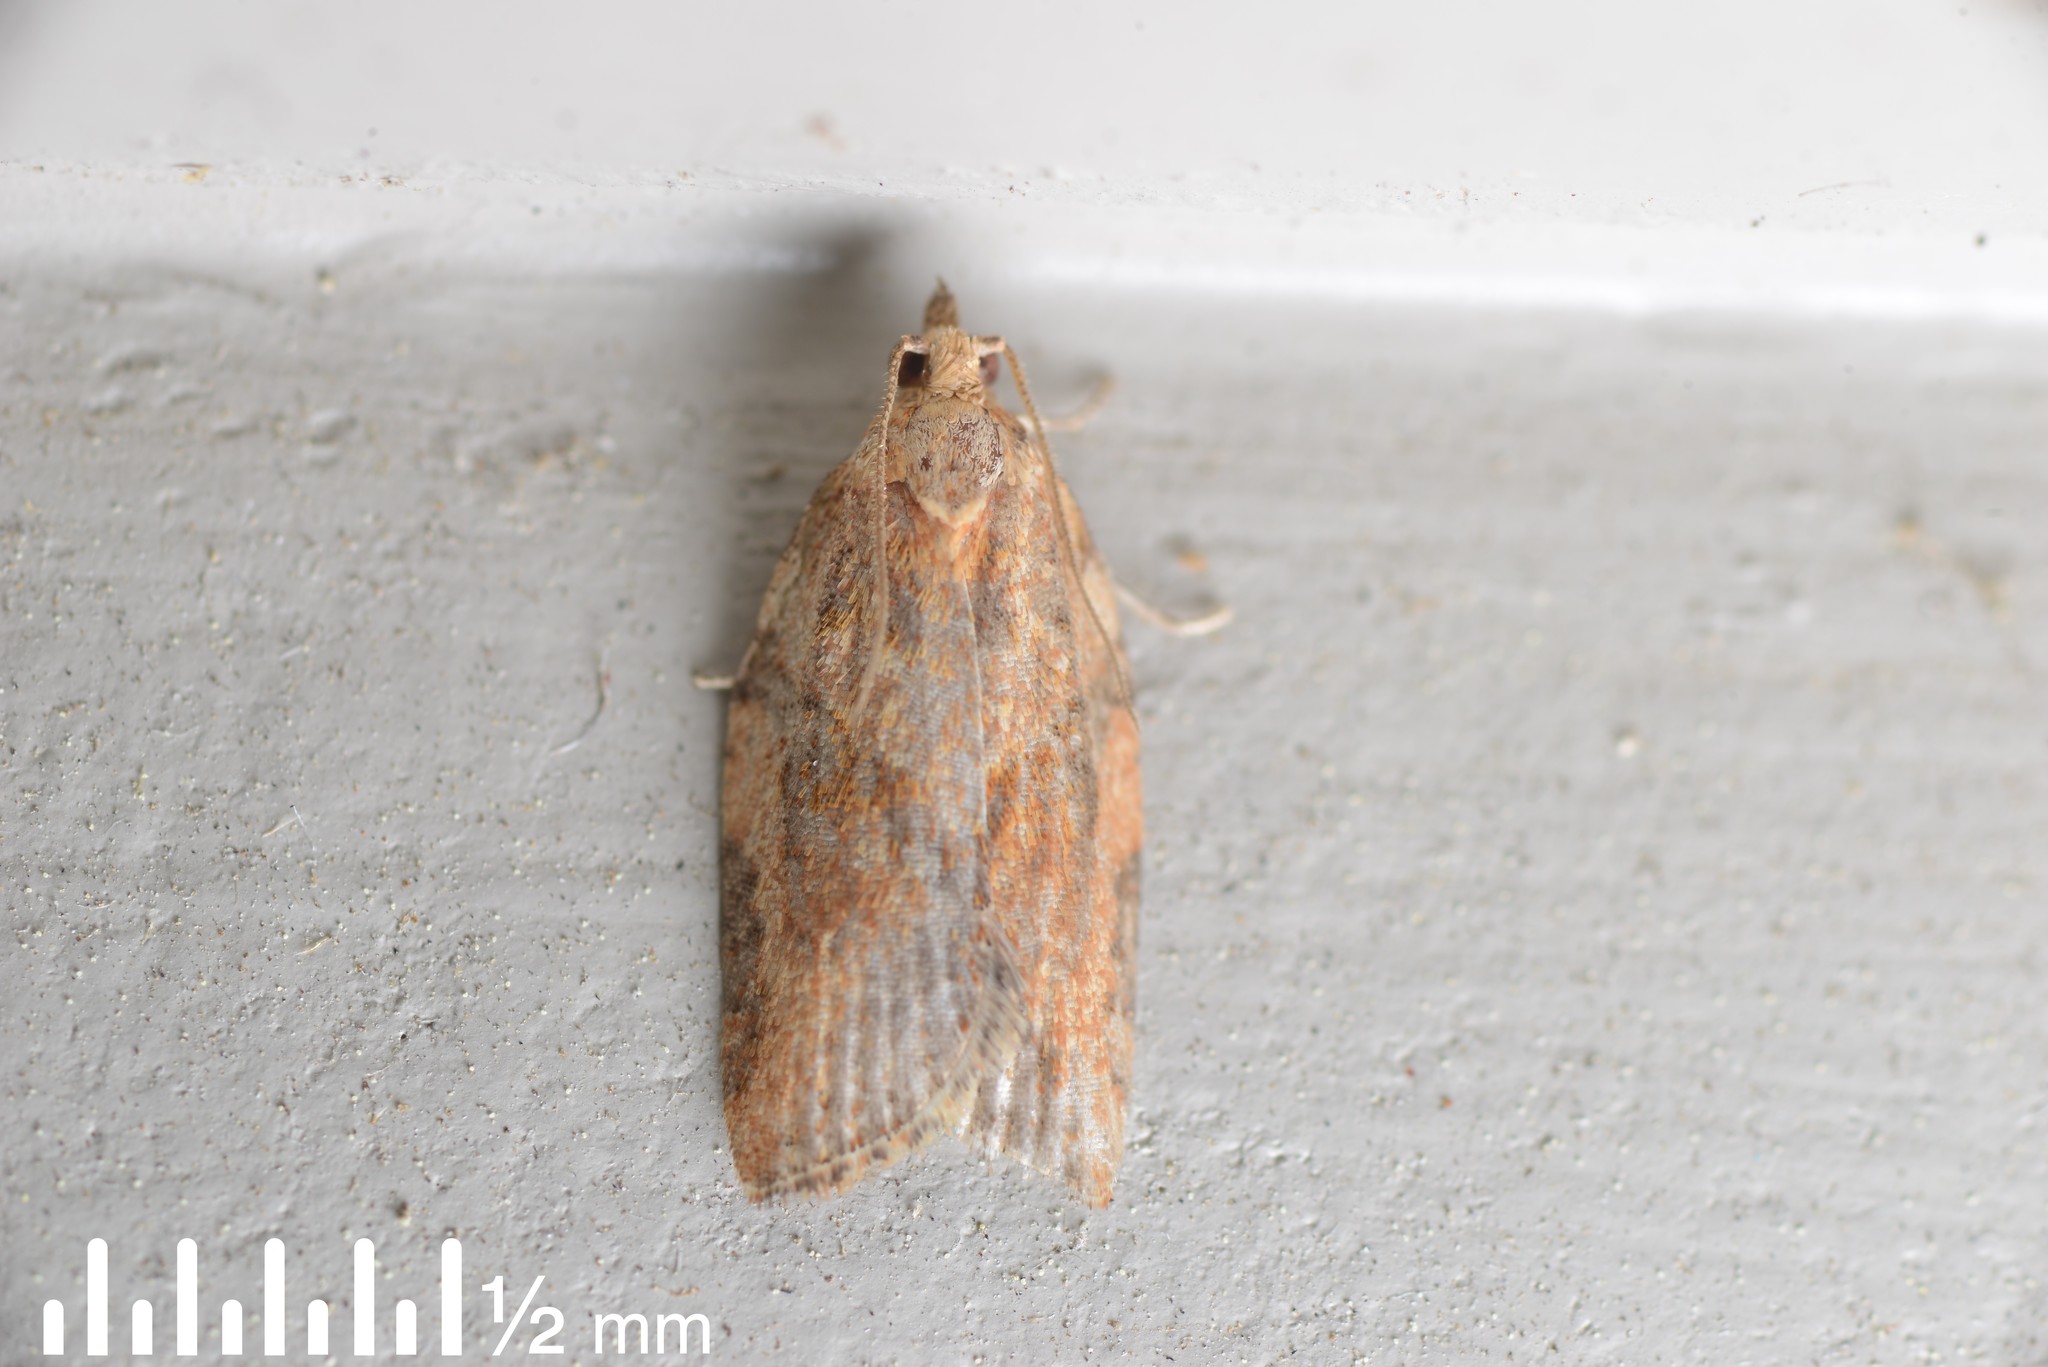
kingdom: Animalia
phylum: Arthropoda
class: Insecta
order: Lepidoptera
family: Tortricidae
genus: Epiphyas
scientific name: Epiphyas postvittana
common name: Light brown apple moth
